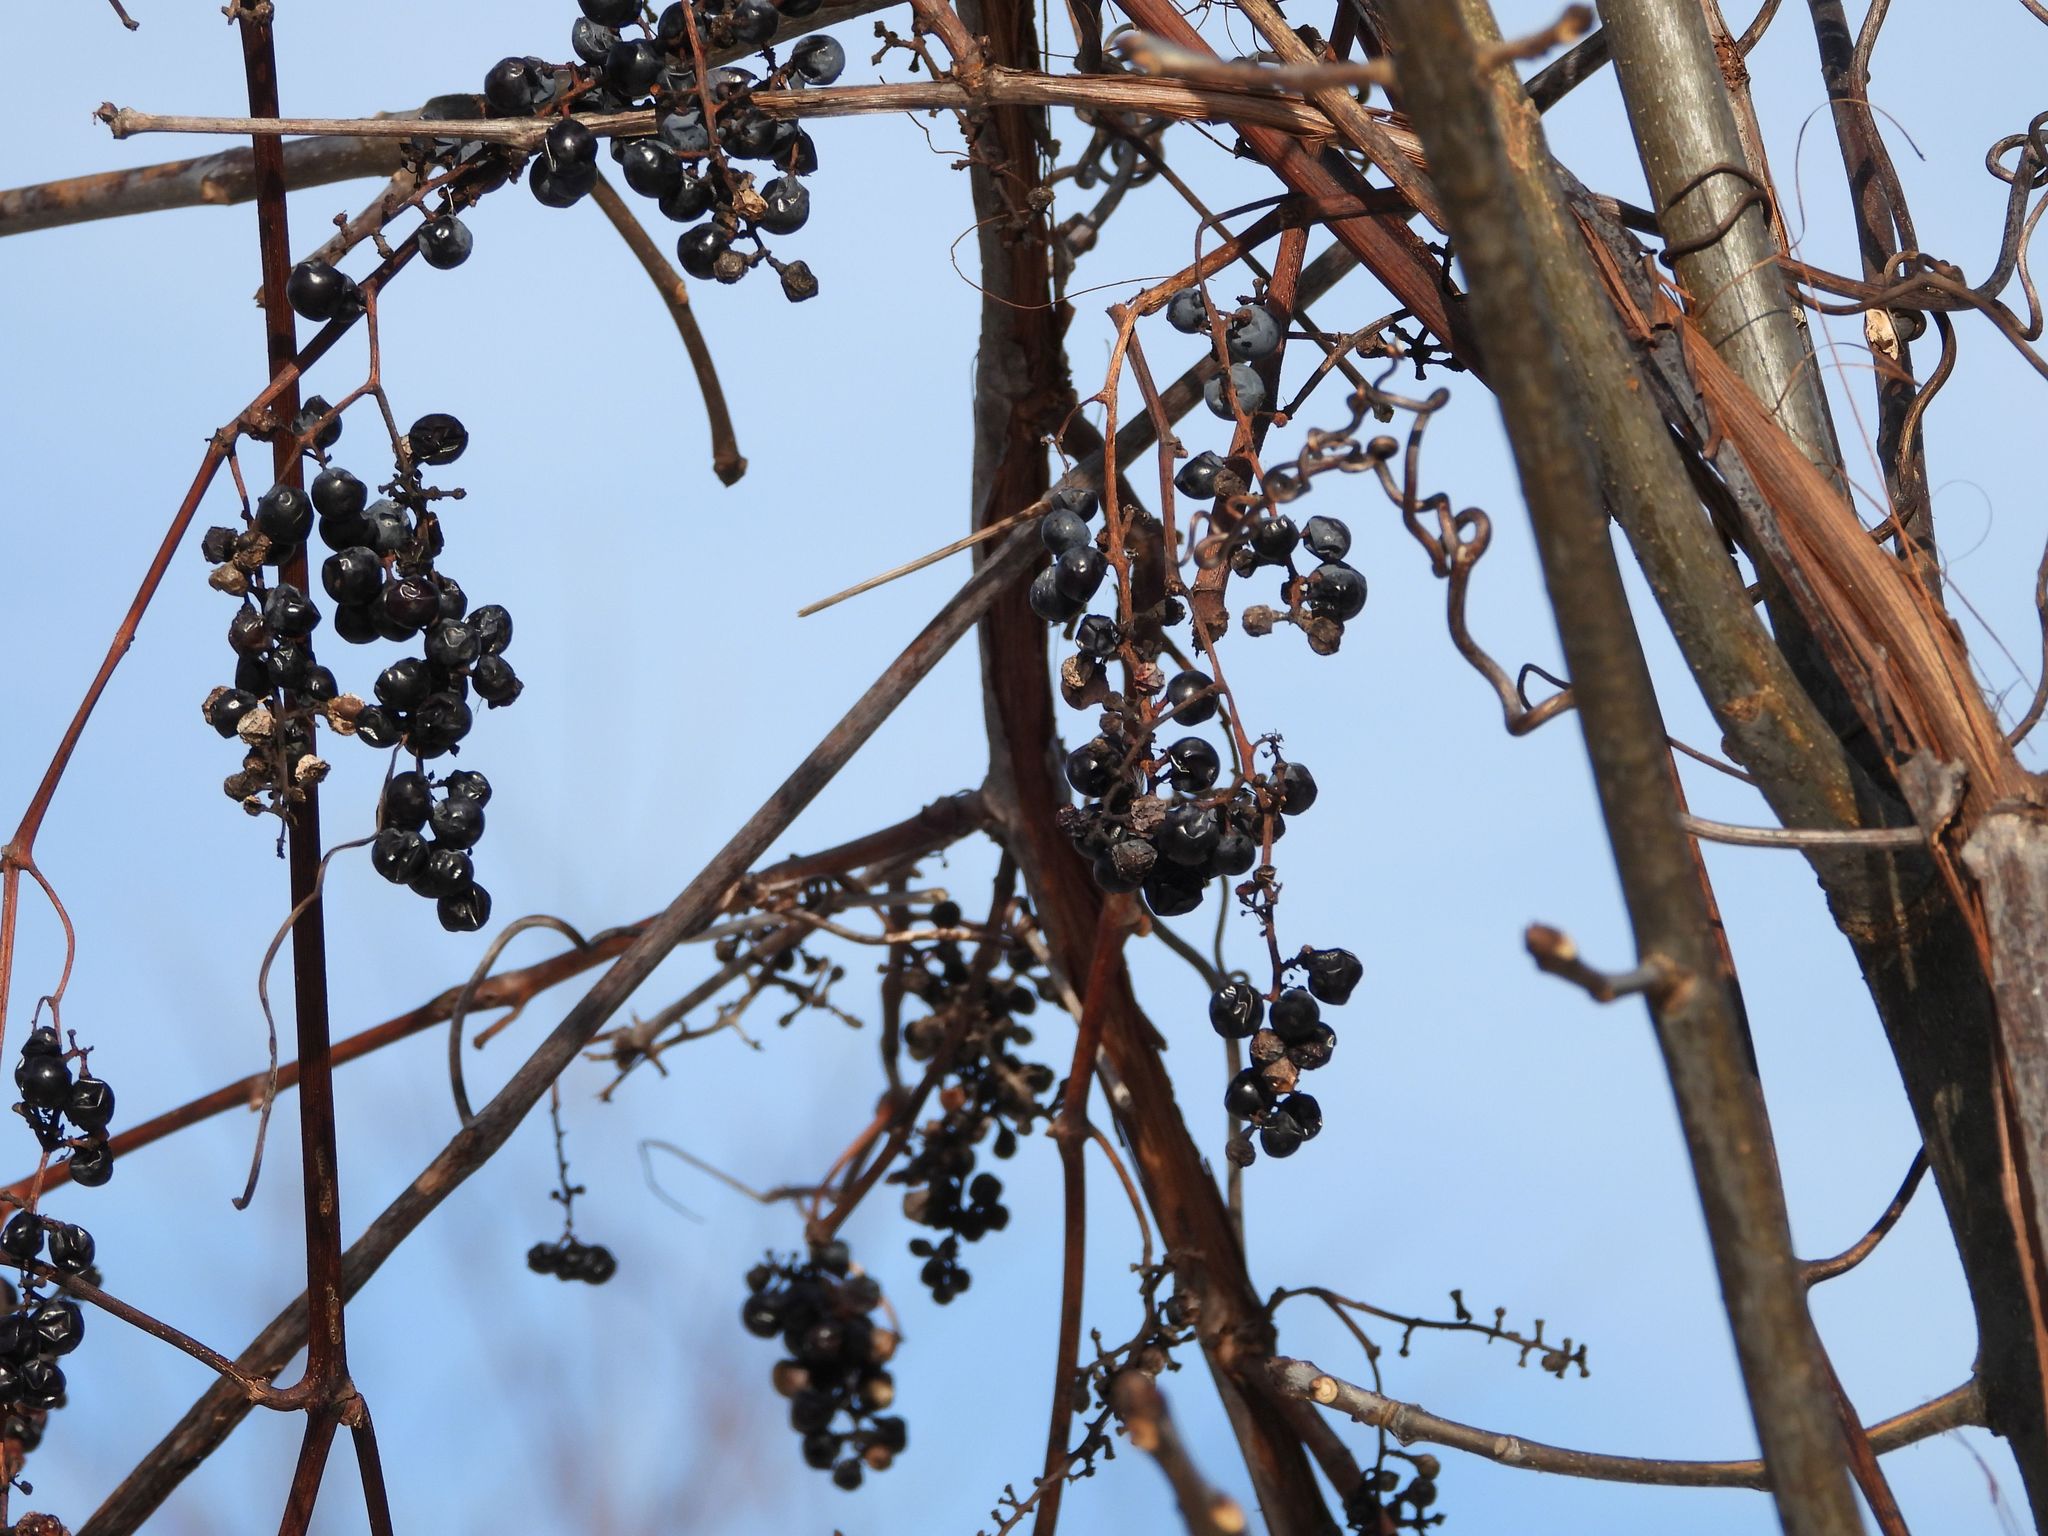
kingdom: Plantae
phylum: Tracheophyta
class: Magnoliopsida
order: Vitales
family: Vitaceae
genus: Vitis
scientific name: Vitis riparia
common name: Frost grape
